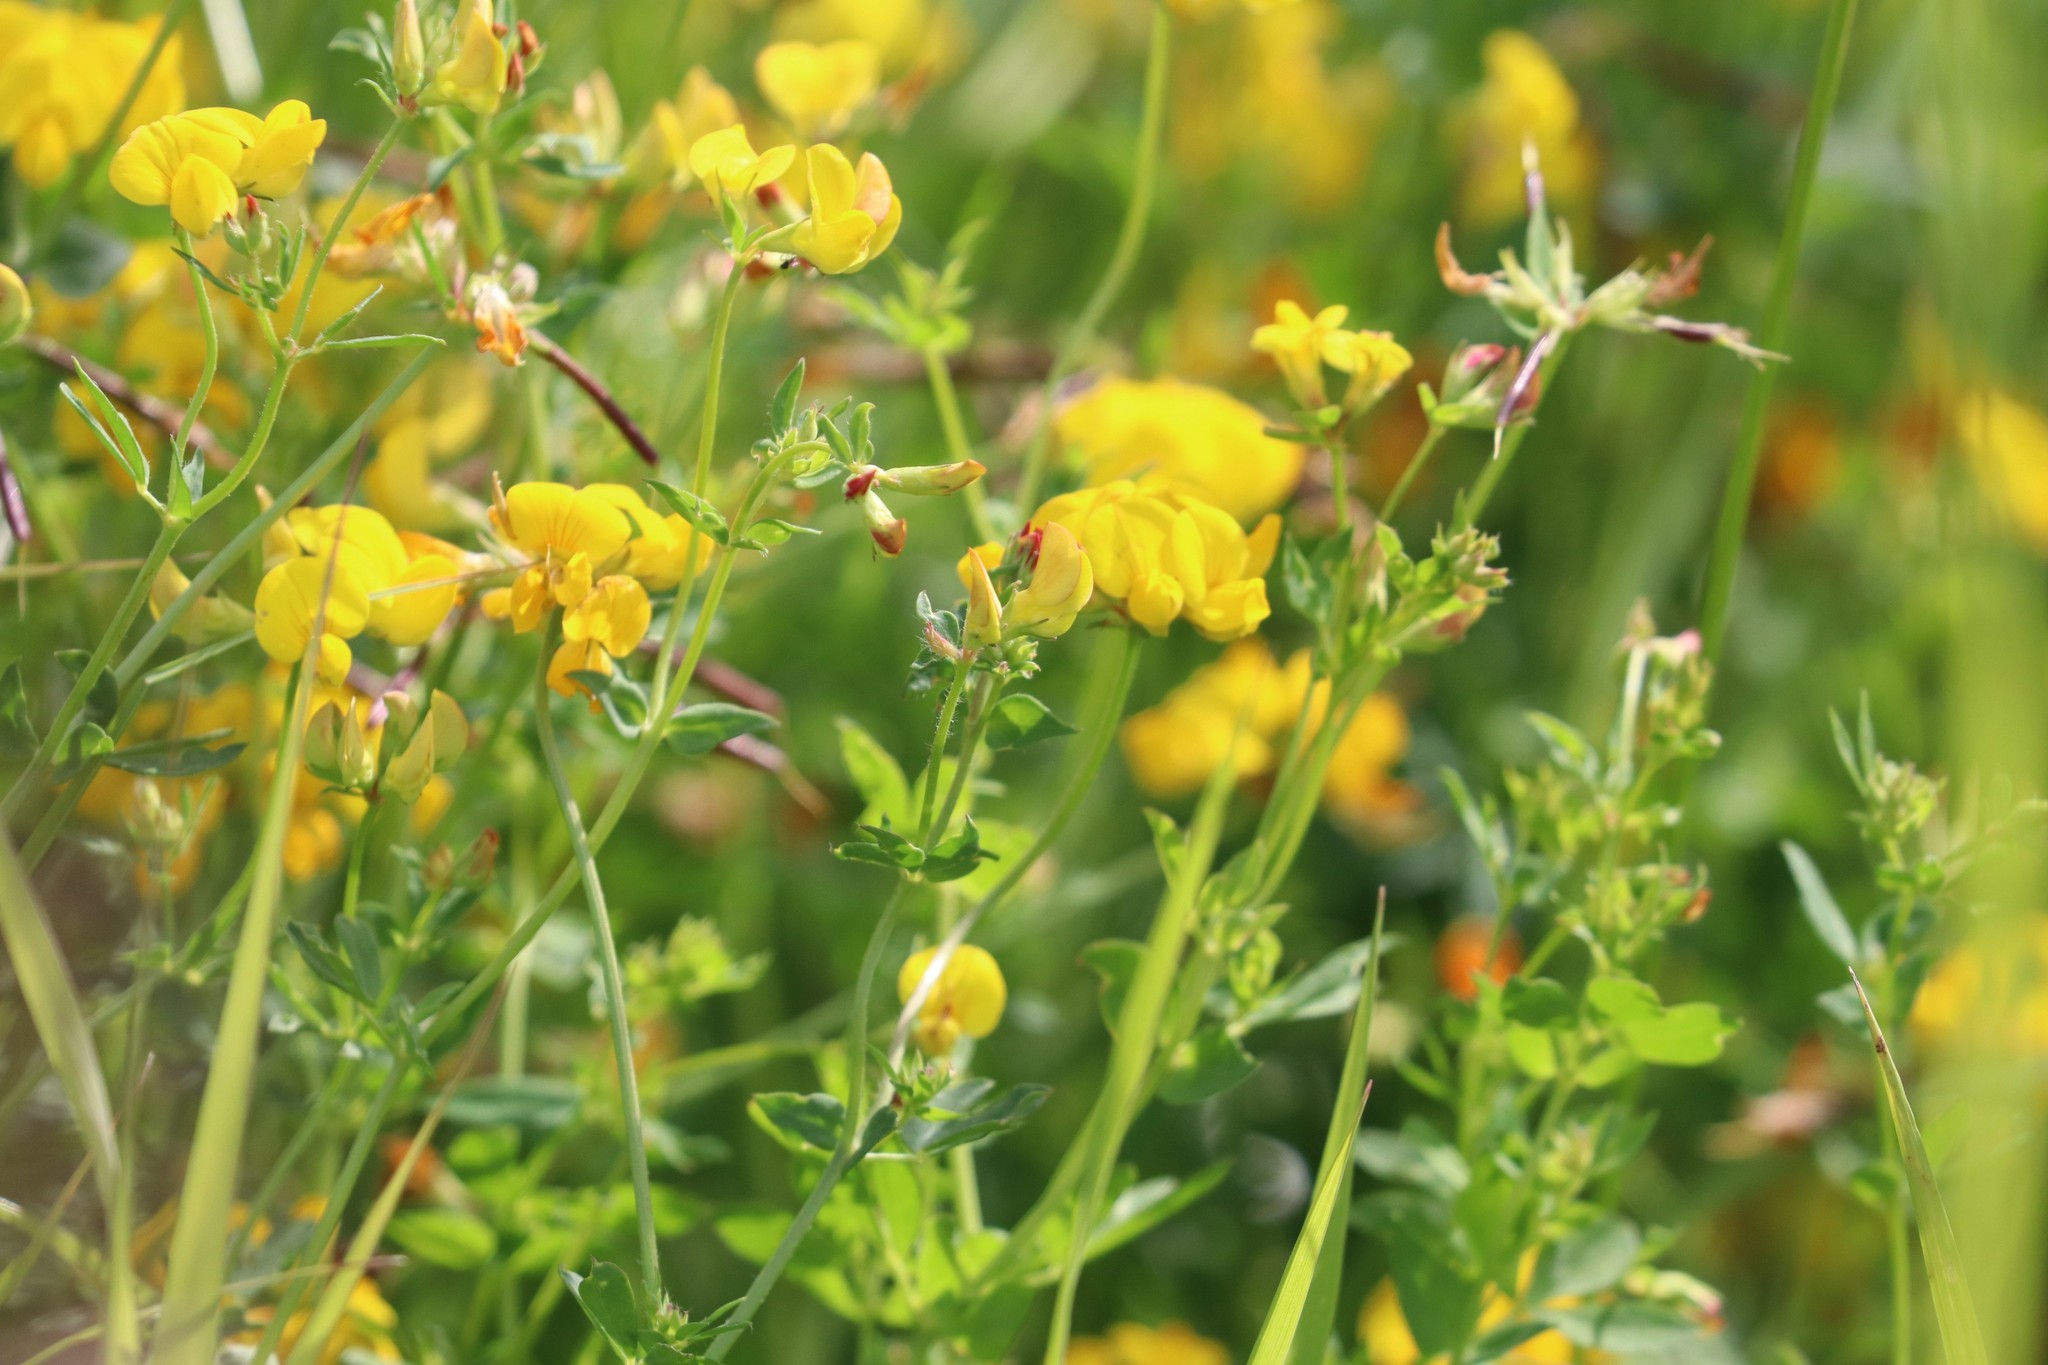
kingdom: Plantae
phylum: Tracheophyta
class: Magnoliopsida
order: Fabales
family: Fabaceae
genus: Lotus
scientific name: Lotus corniculatus
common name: Common bird's-foot-trefoil
